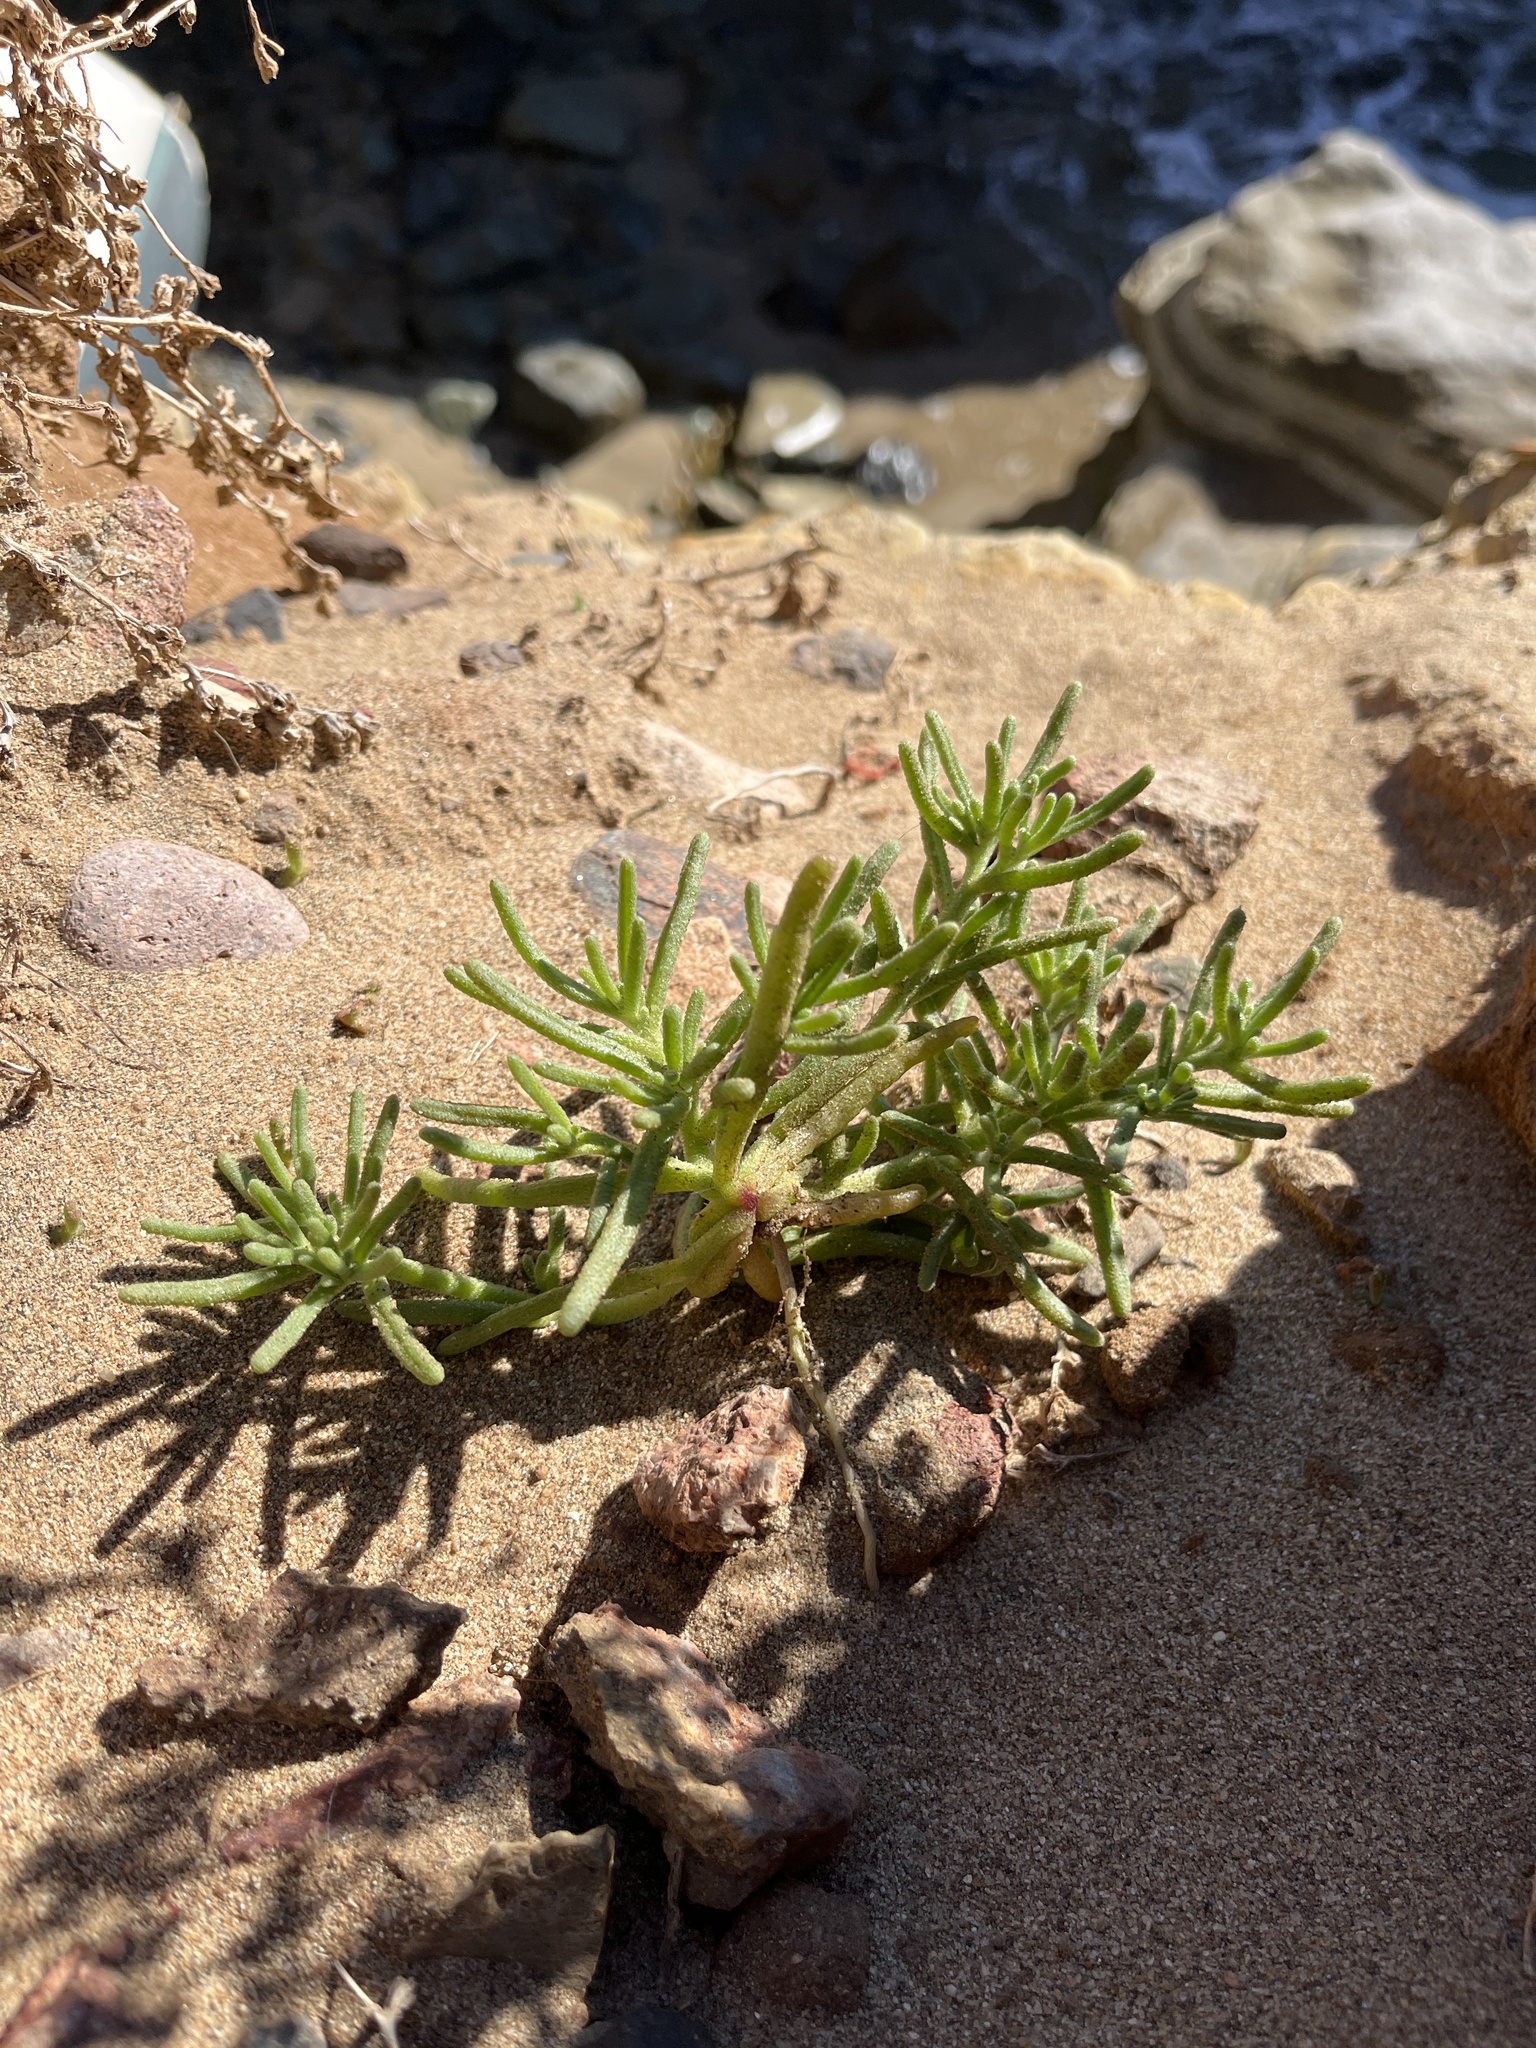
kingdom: Plantae
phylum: Tracheophyta
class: Magnoliopsida
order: Caryophyllales
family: Aizoaceae
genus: Mesembryanthemum
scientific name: Mesembryanthemum nodiflorum
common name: Slenderleaf iceplant
